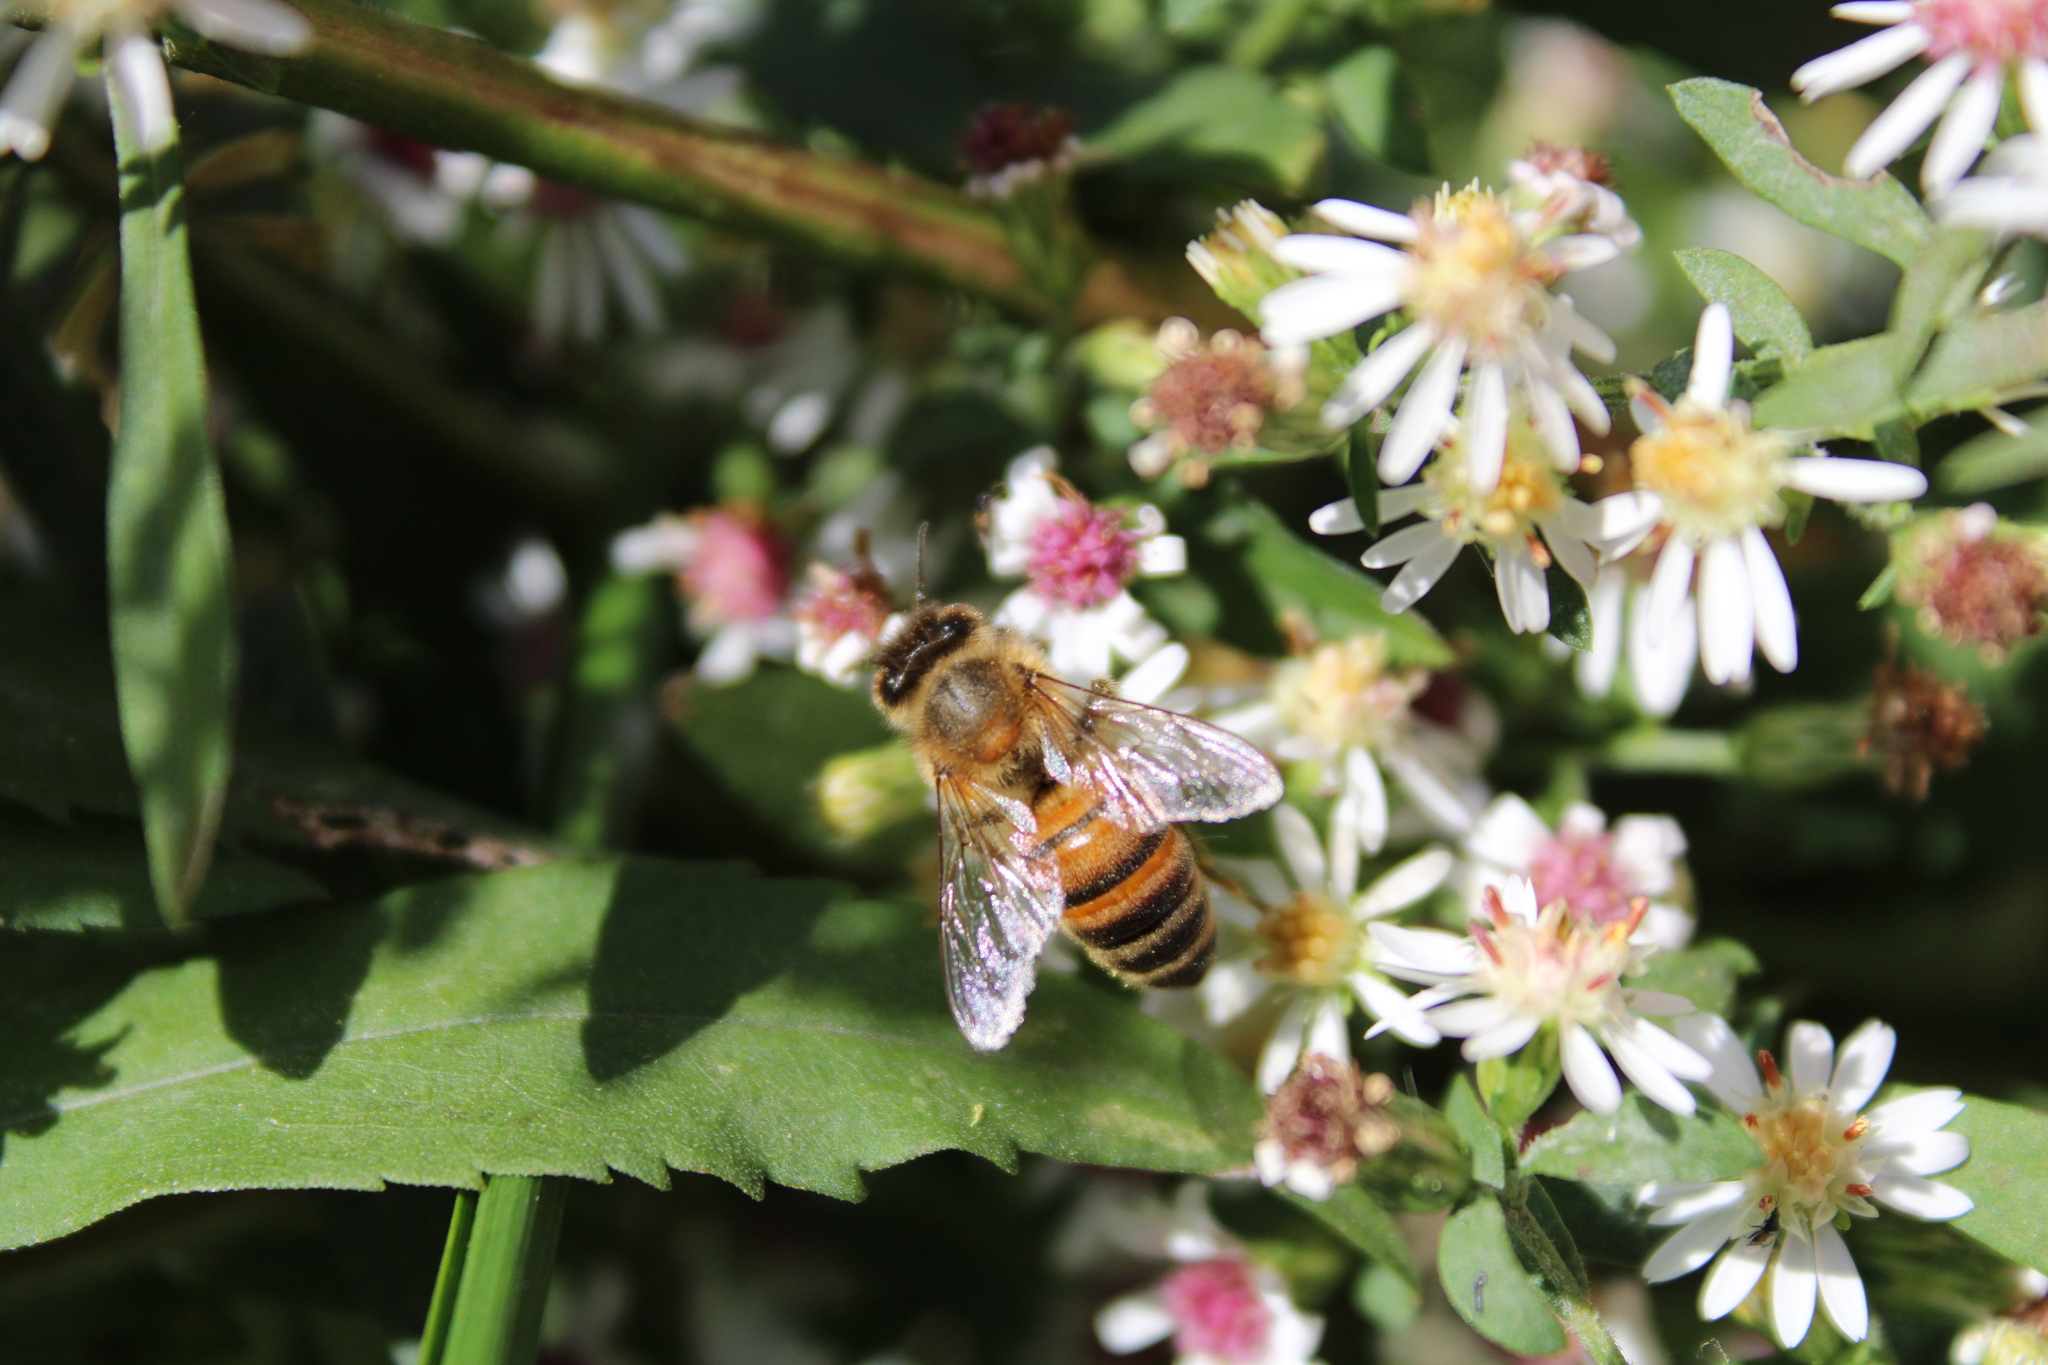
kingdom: Animalia
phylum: Arthropoda
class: Insecta
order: Hymenoptera
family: Apidae
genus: Apis
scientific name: Apis mellifera
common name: Honey bee
